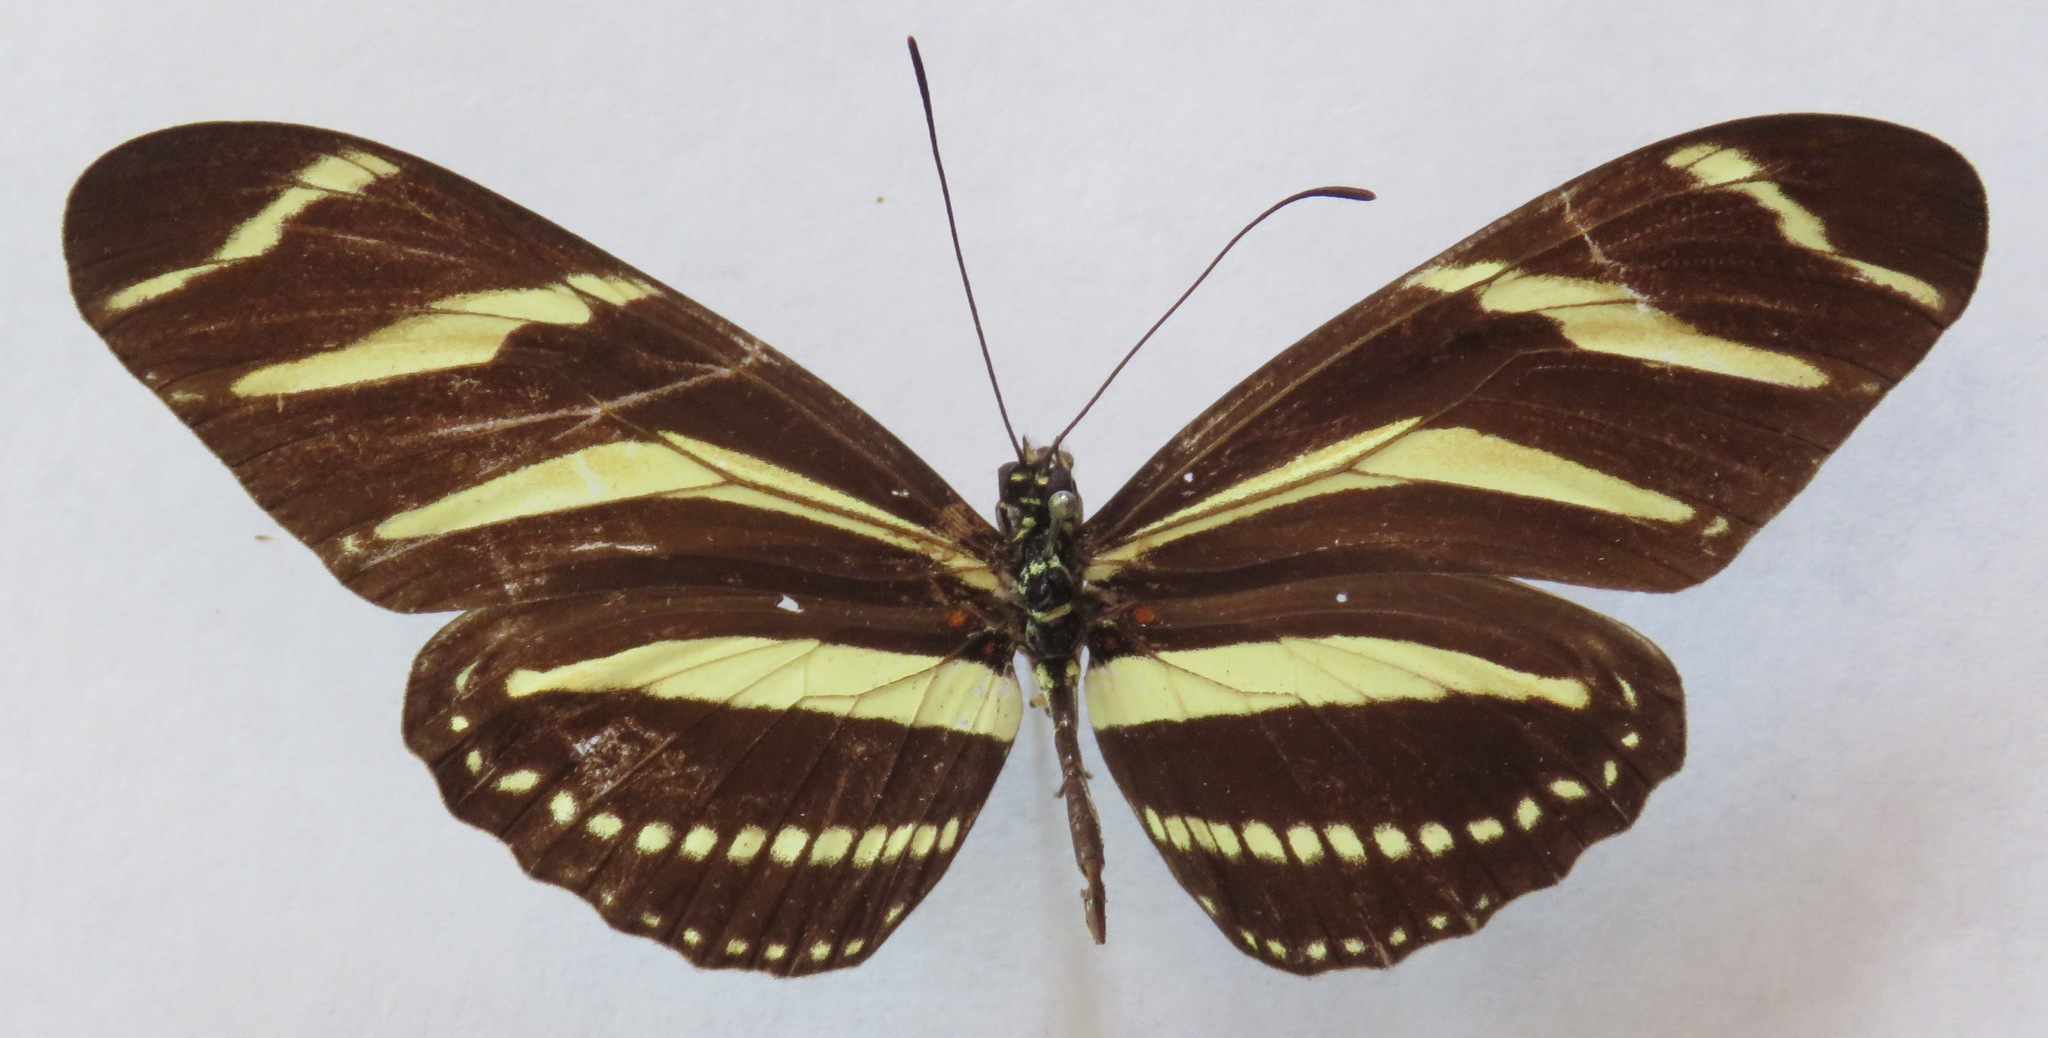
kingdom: Animalia
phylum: Arthropoda
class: Insecta
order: Lepidoptera
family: Nymphalidae
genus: Heliconius
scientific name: Heliconius charithonia
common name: Zebra long wing
